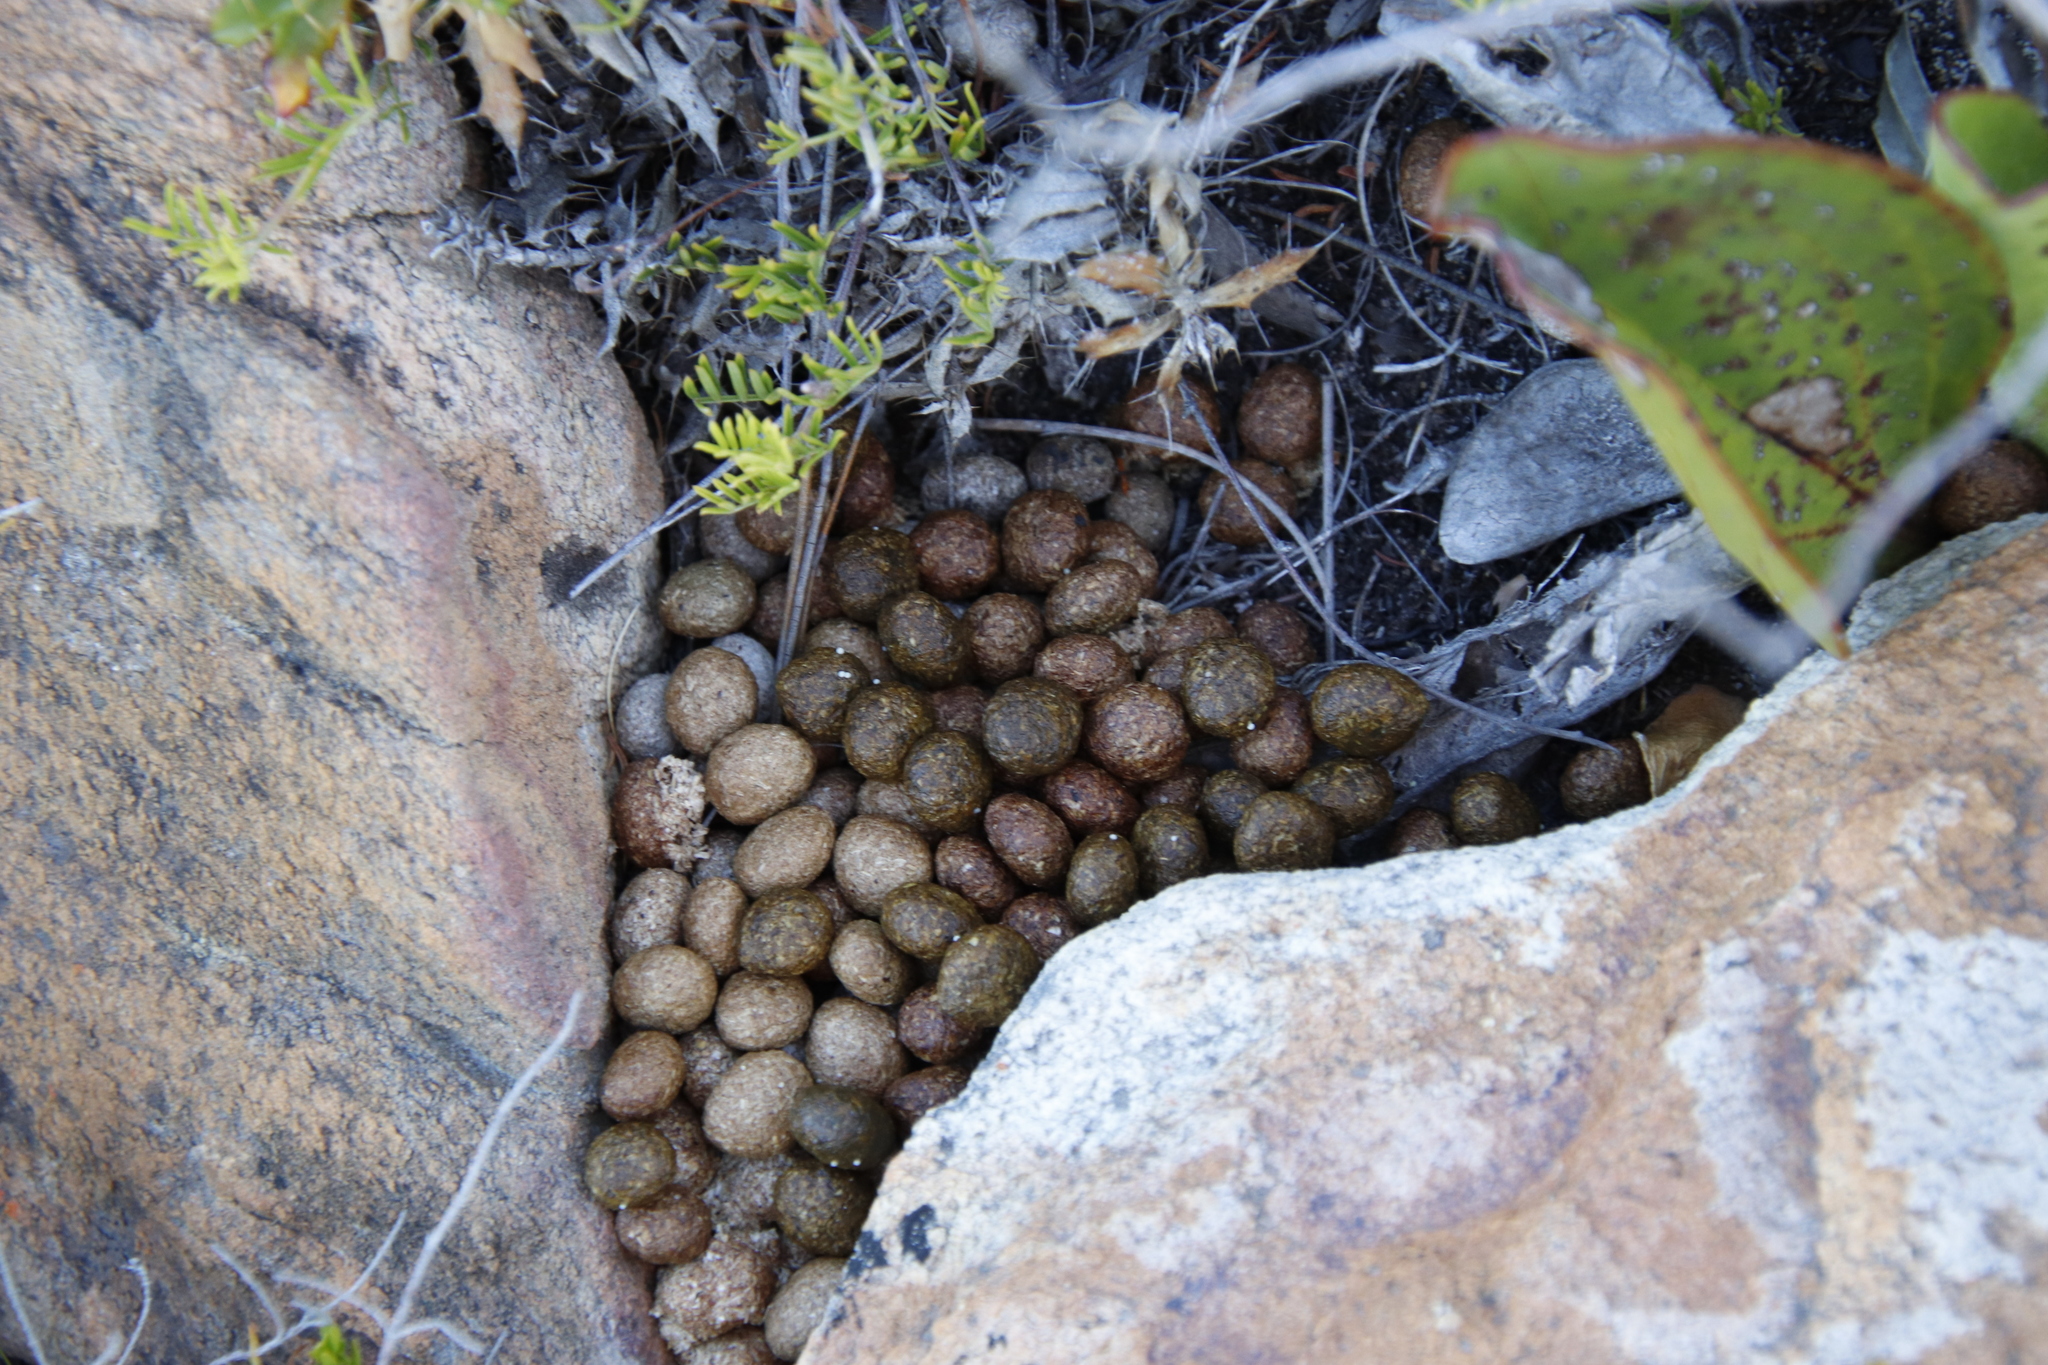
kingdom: Animalia
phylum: Chordata
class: Mammalia
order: Lagomorpha
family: Leporidae
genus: Pronolagus
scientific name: Pronolagus saundersiae
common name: Hewitt's red rock hare
